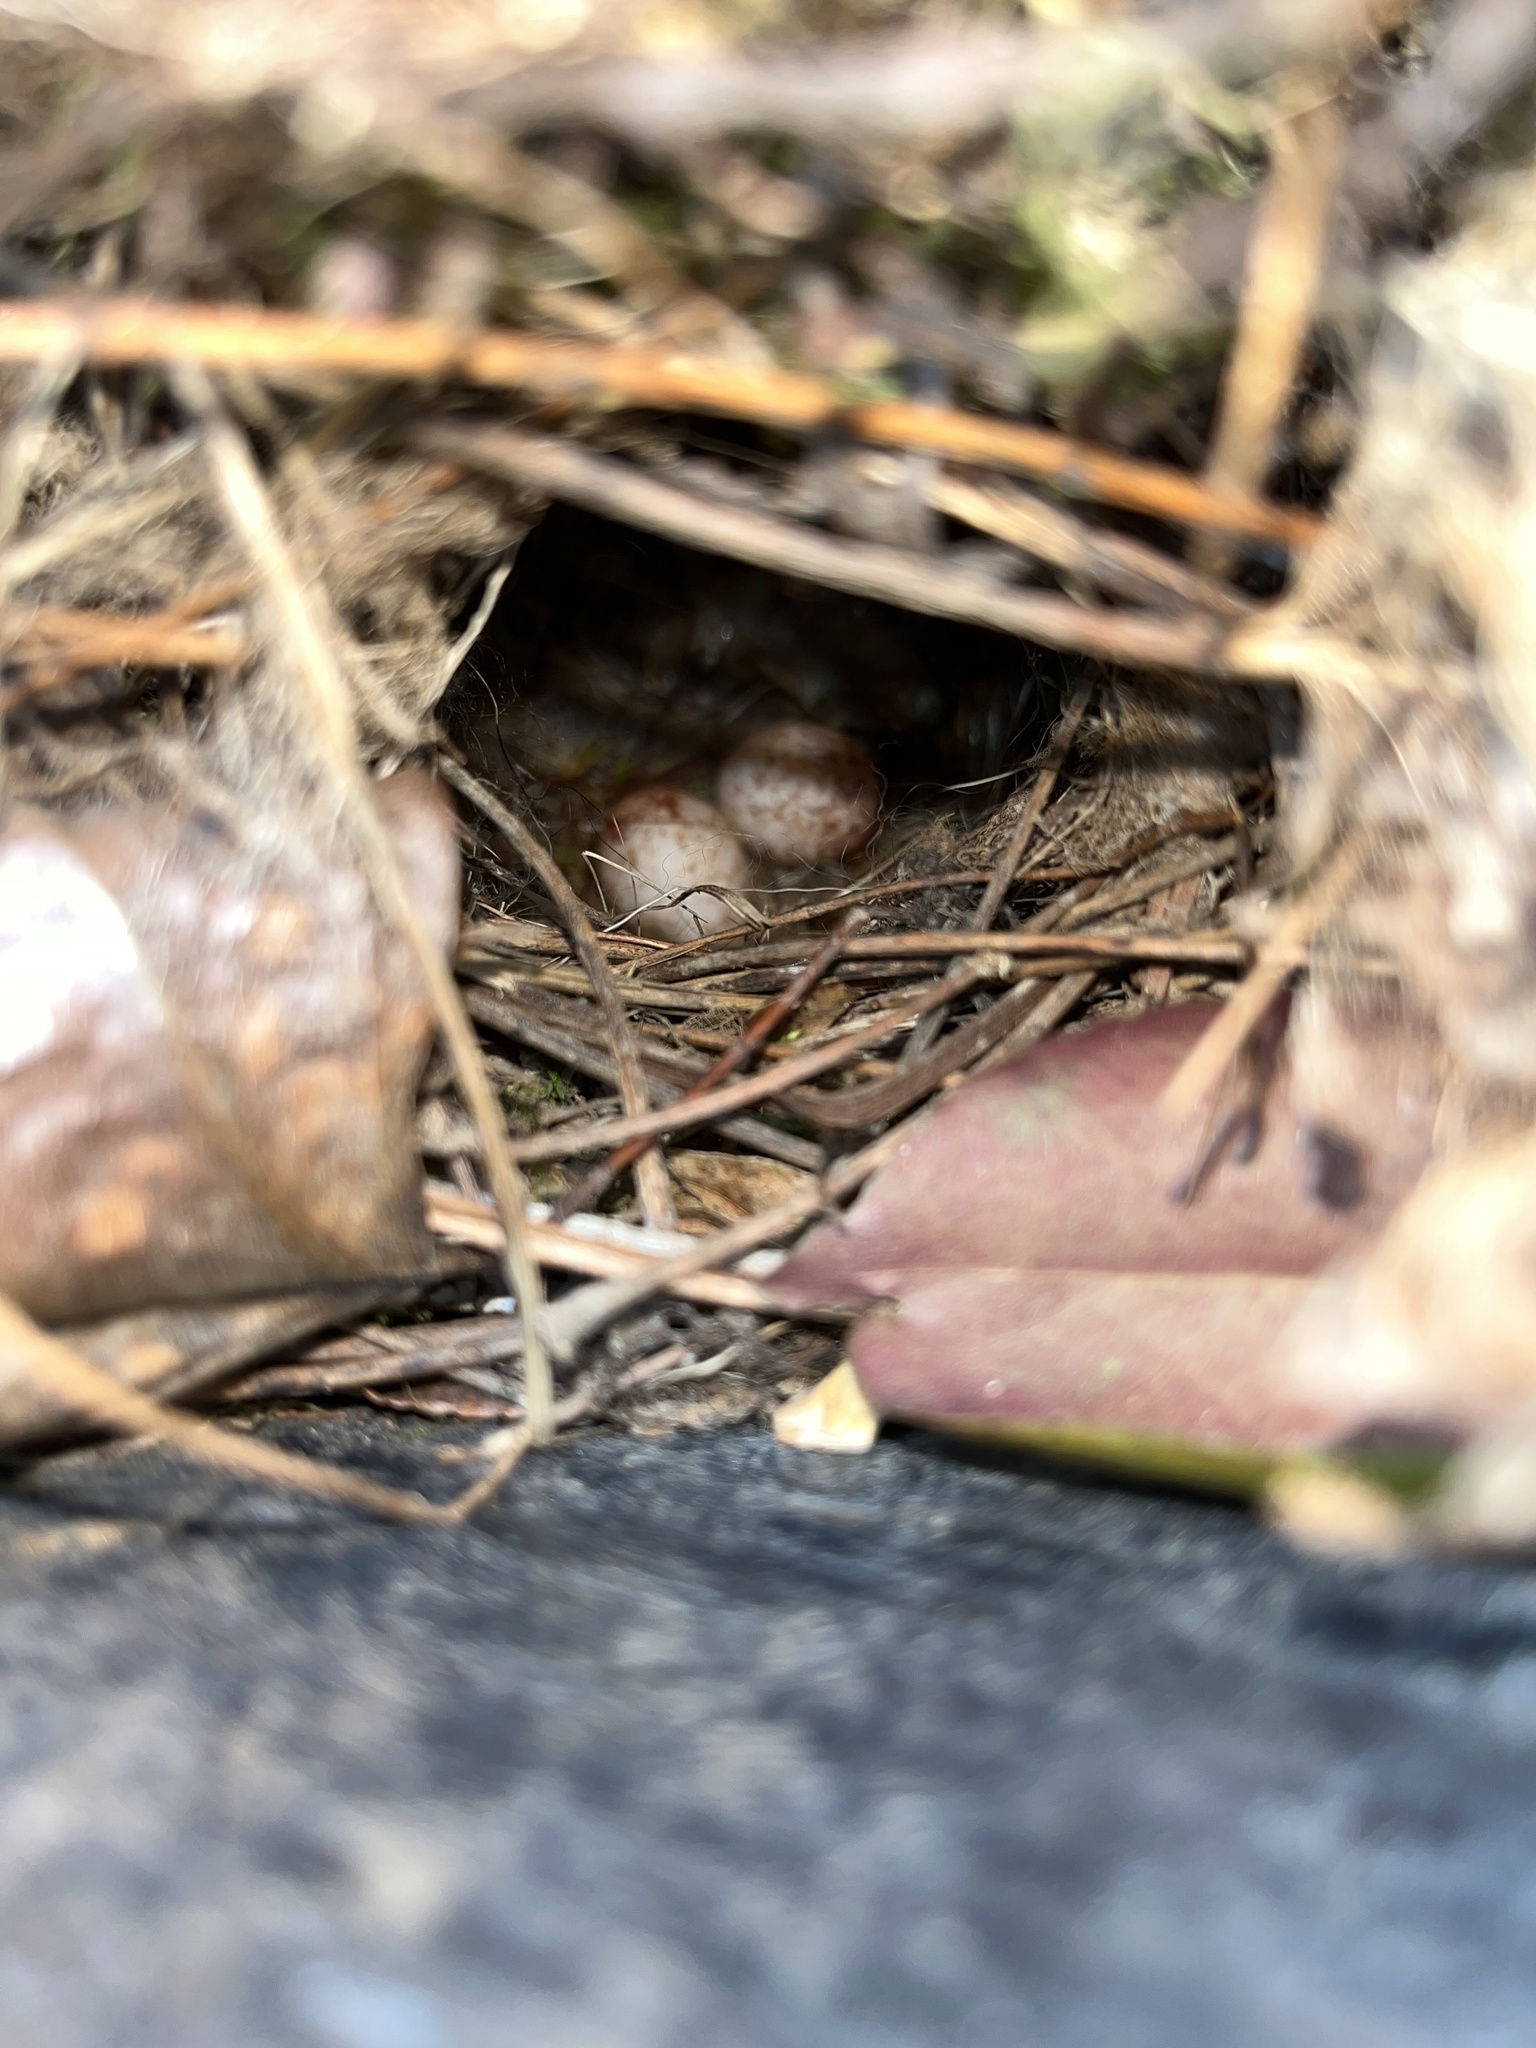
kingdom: Animalia
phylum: Chordata
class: Aves
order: Passeriformes
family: Troglodytidae
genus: Thryothorus
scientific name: Thryothorus ludovicianus
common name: Carolina wren
